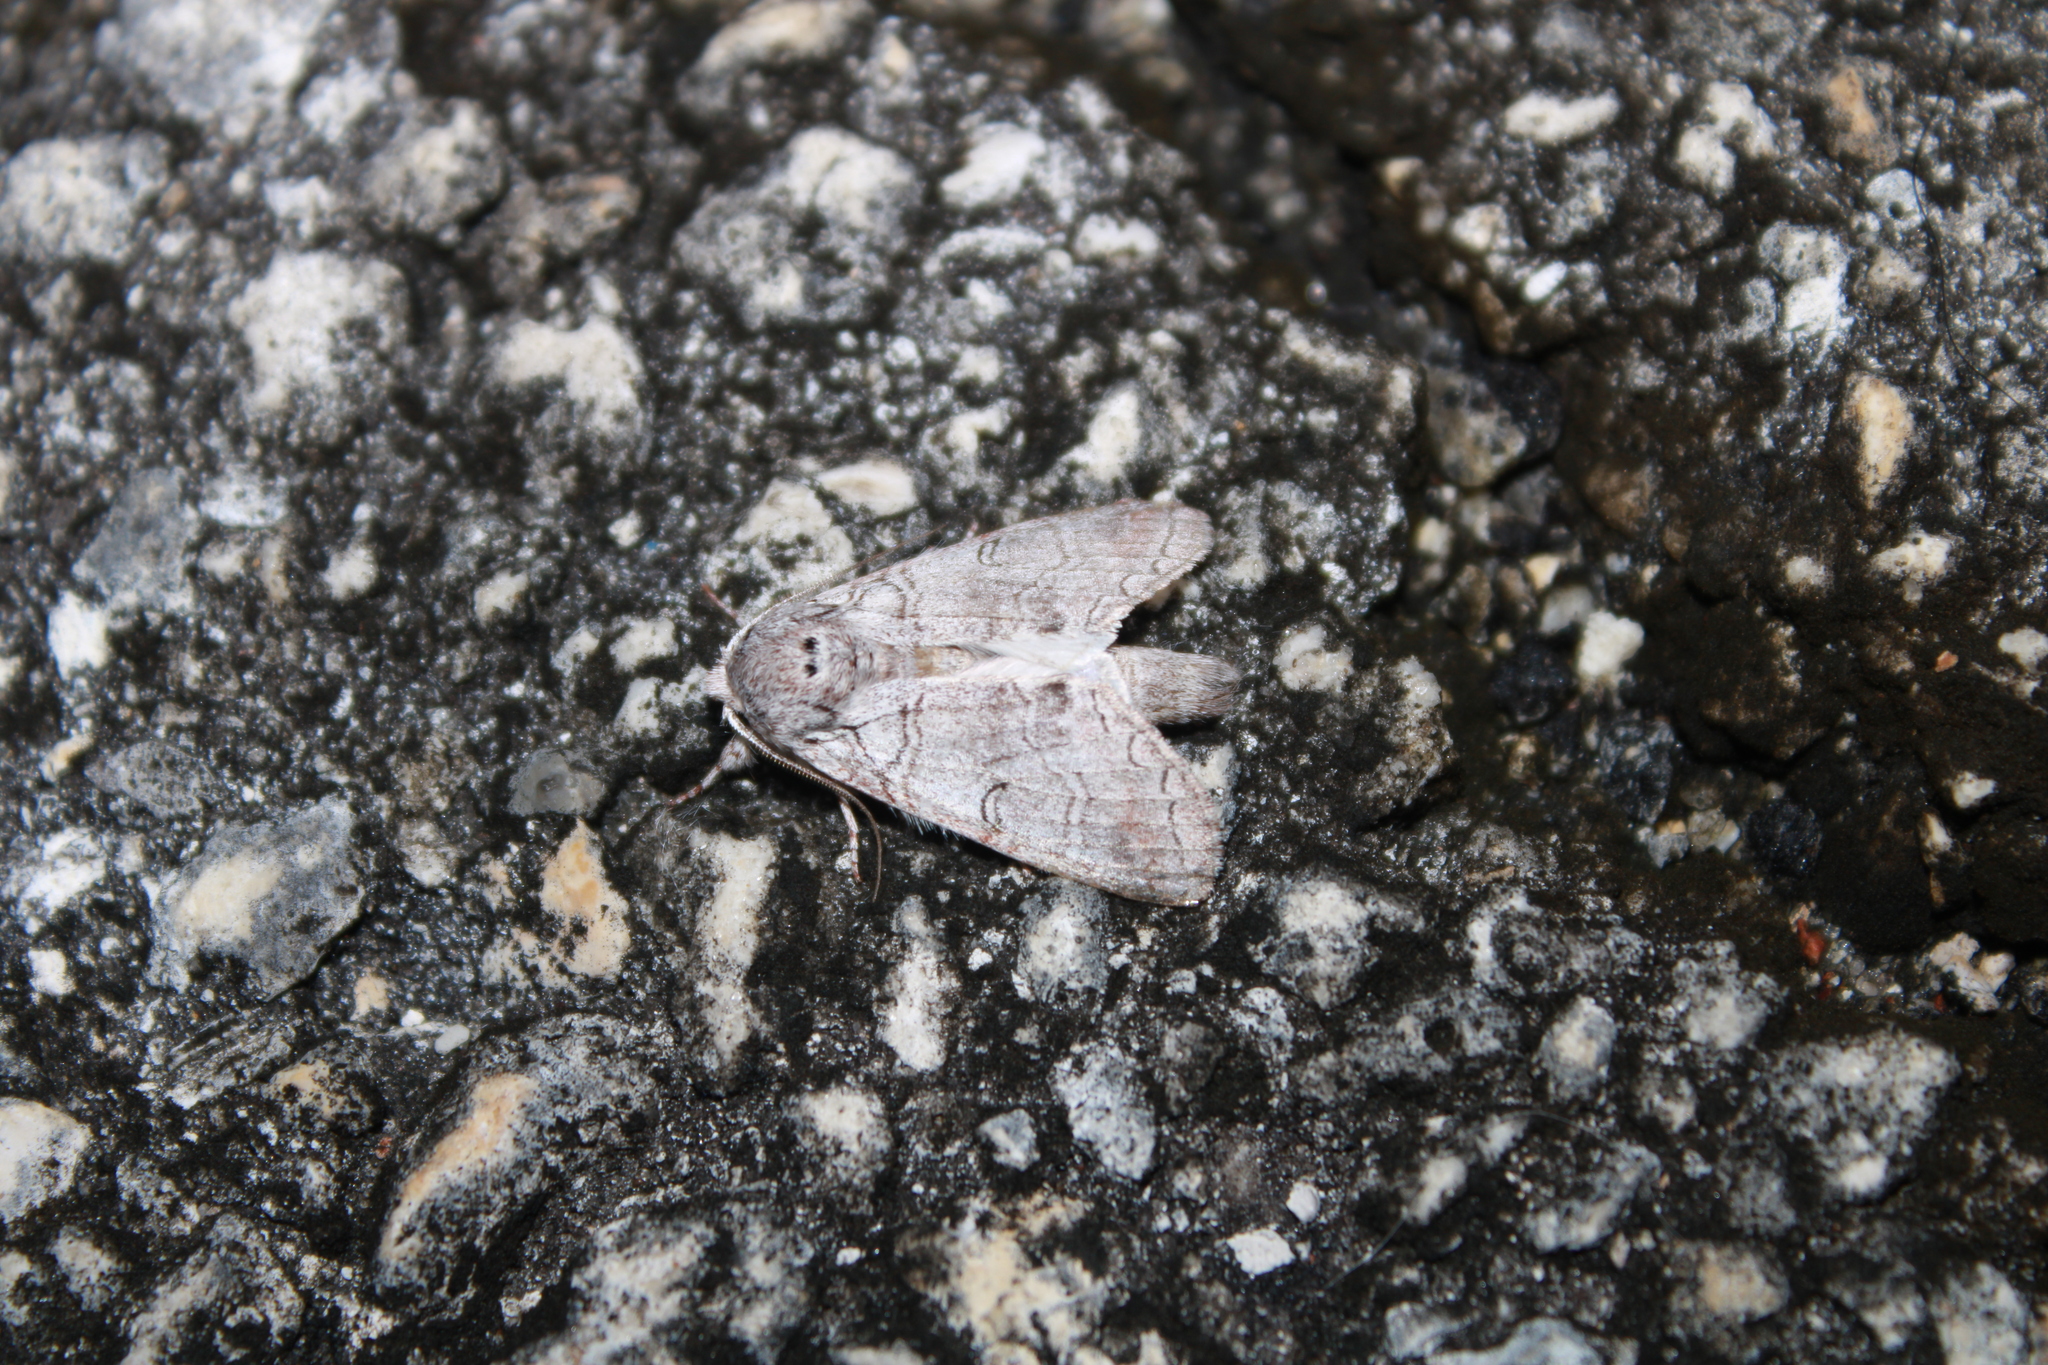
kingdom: Animalia
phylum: Arthropoda
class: Insecta
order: Coleoptera
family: Cerambycidae
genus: Styloleptus
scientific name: Styloleptus
